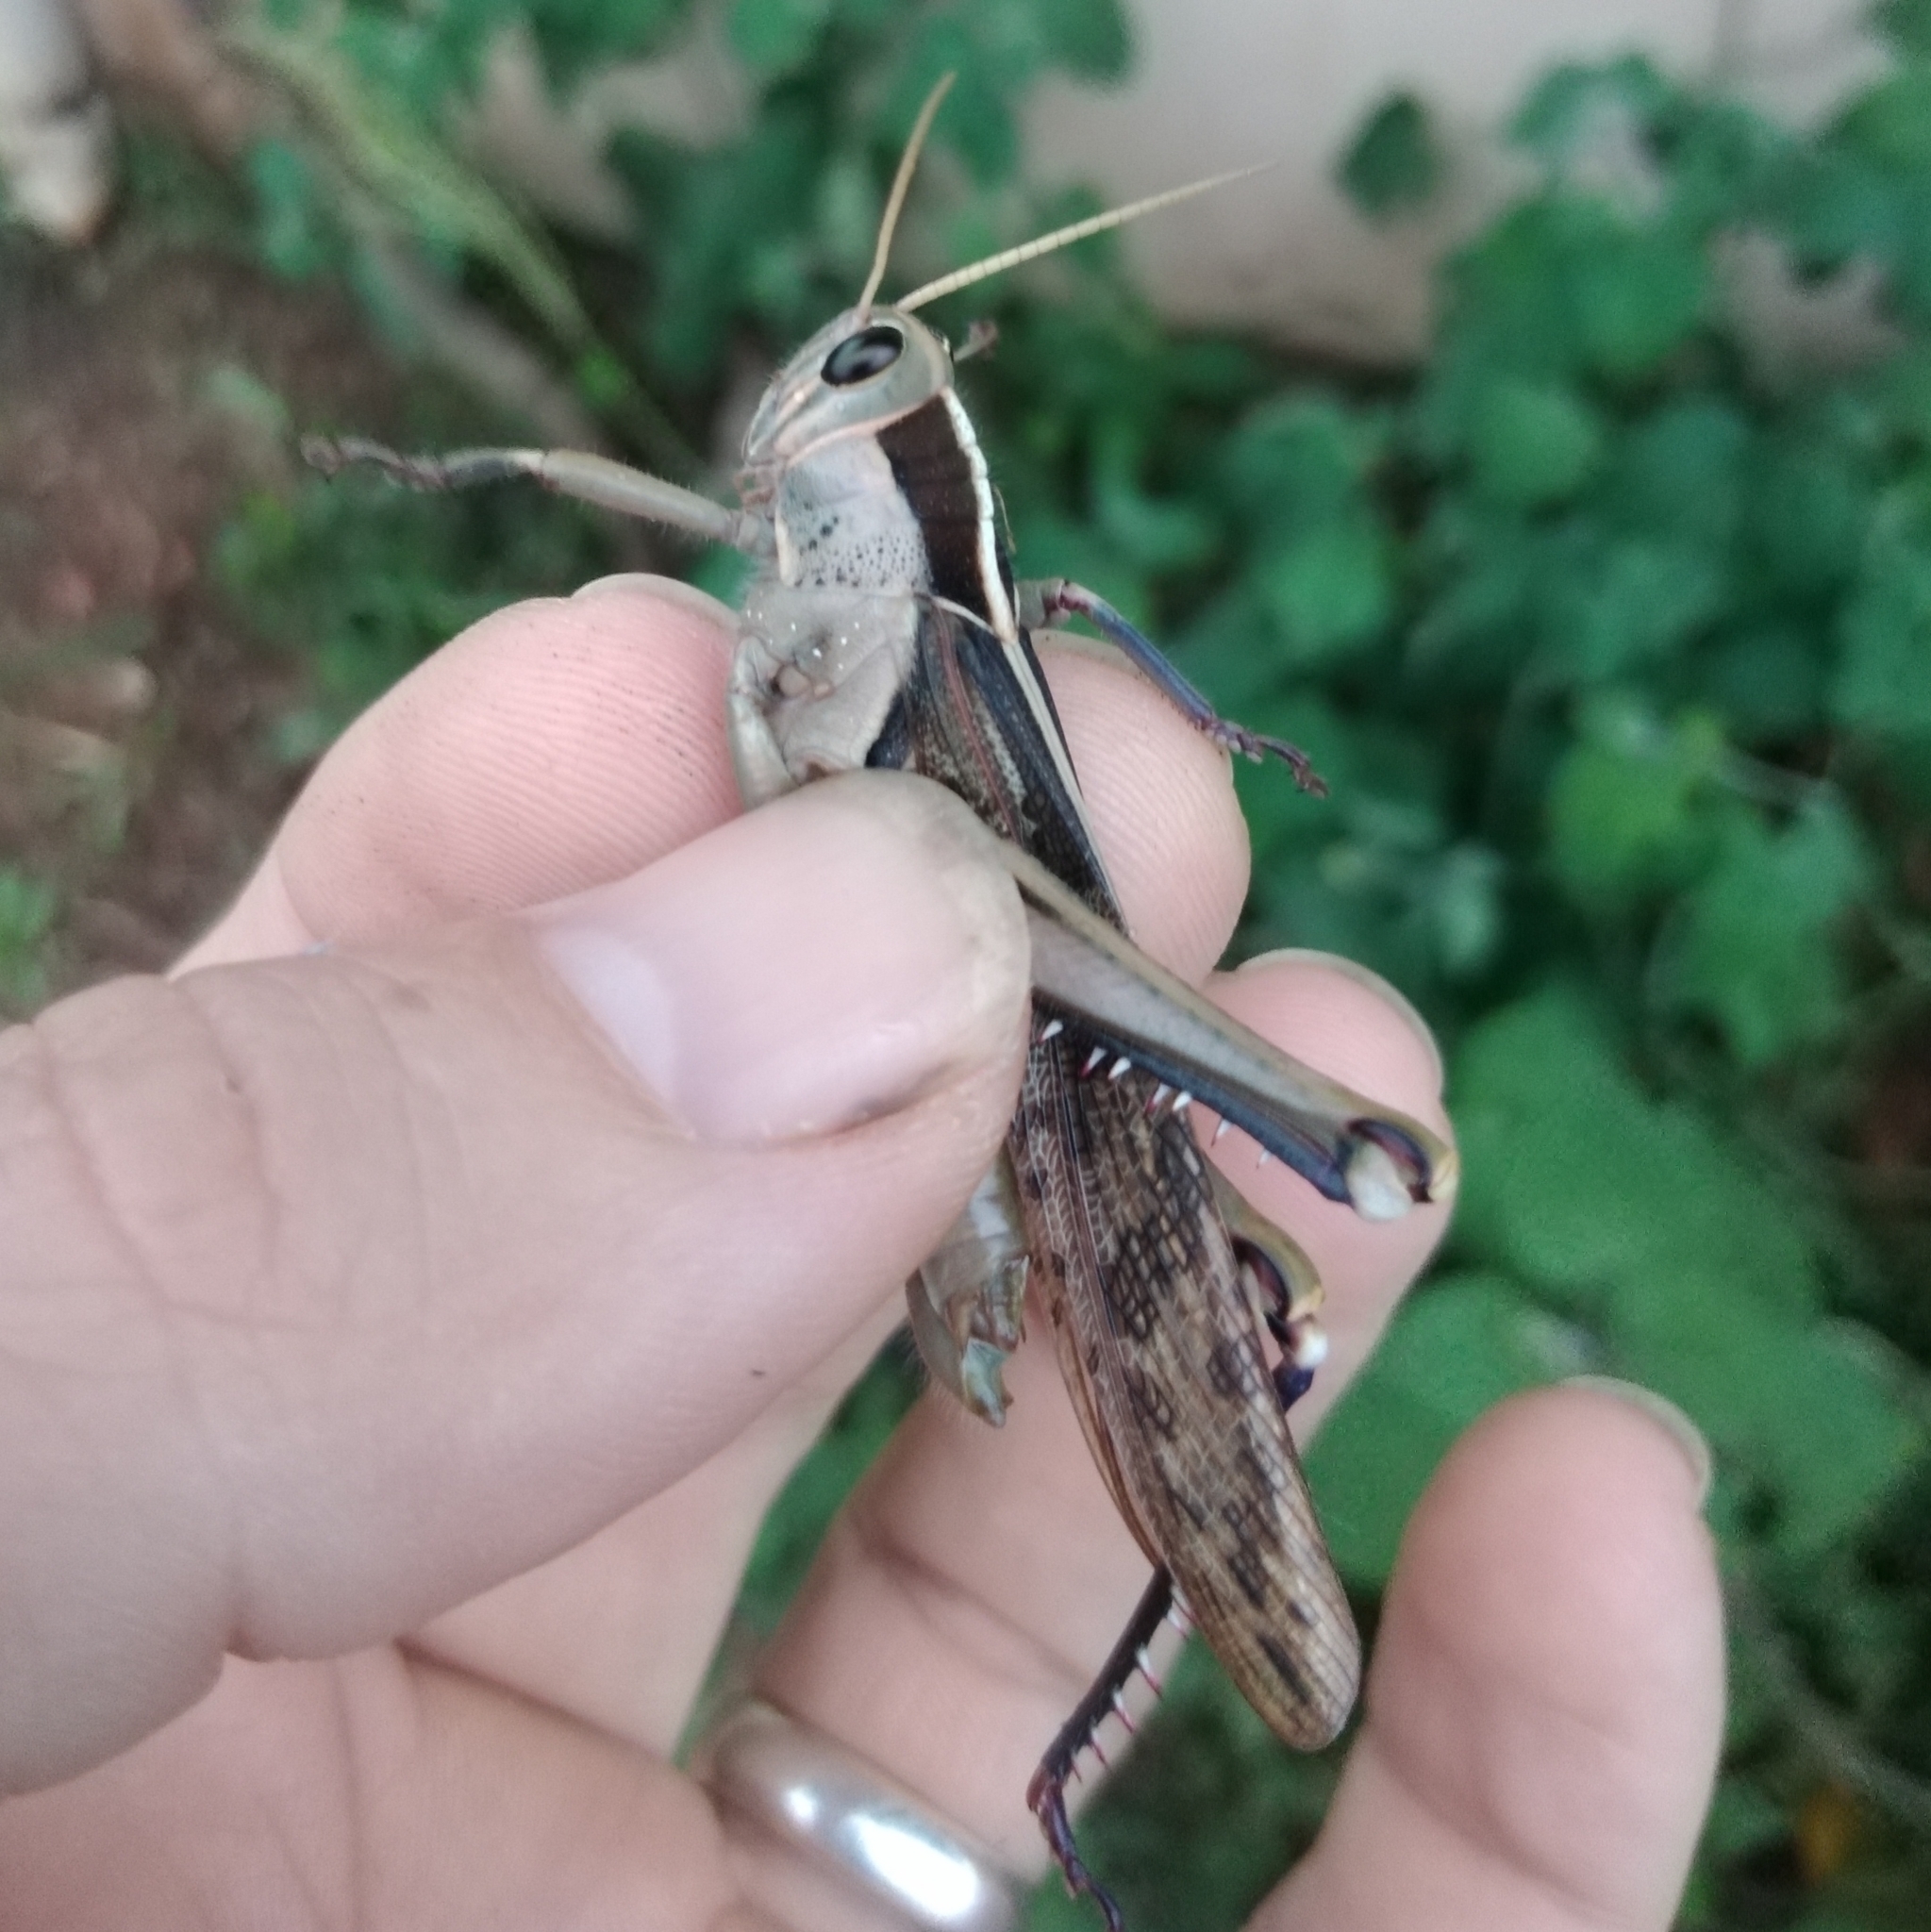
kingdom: Animalia
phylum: Arthropoda
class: Insecta
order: Orthoptera
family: Acrididae
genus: Acanthacris
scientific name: Acanthacris ruficornis
